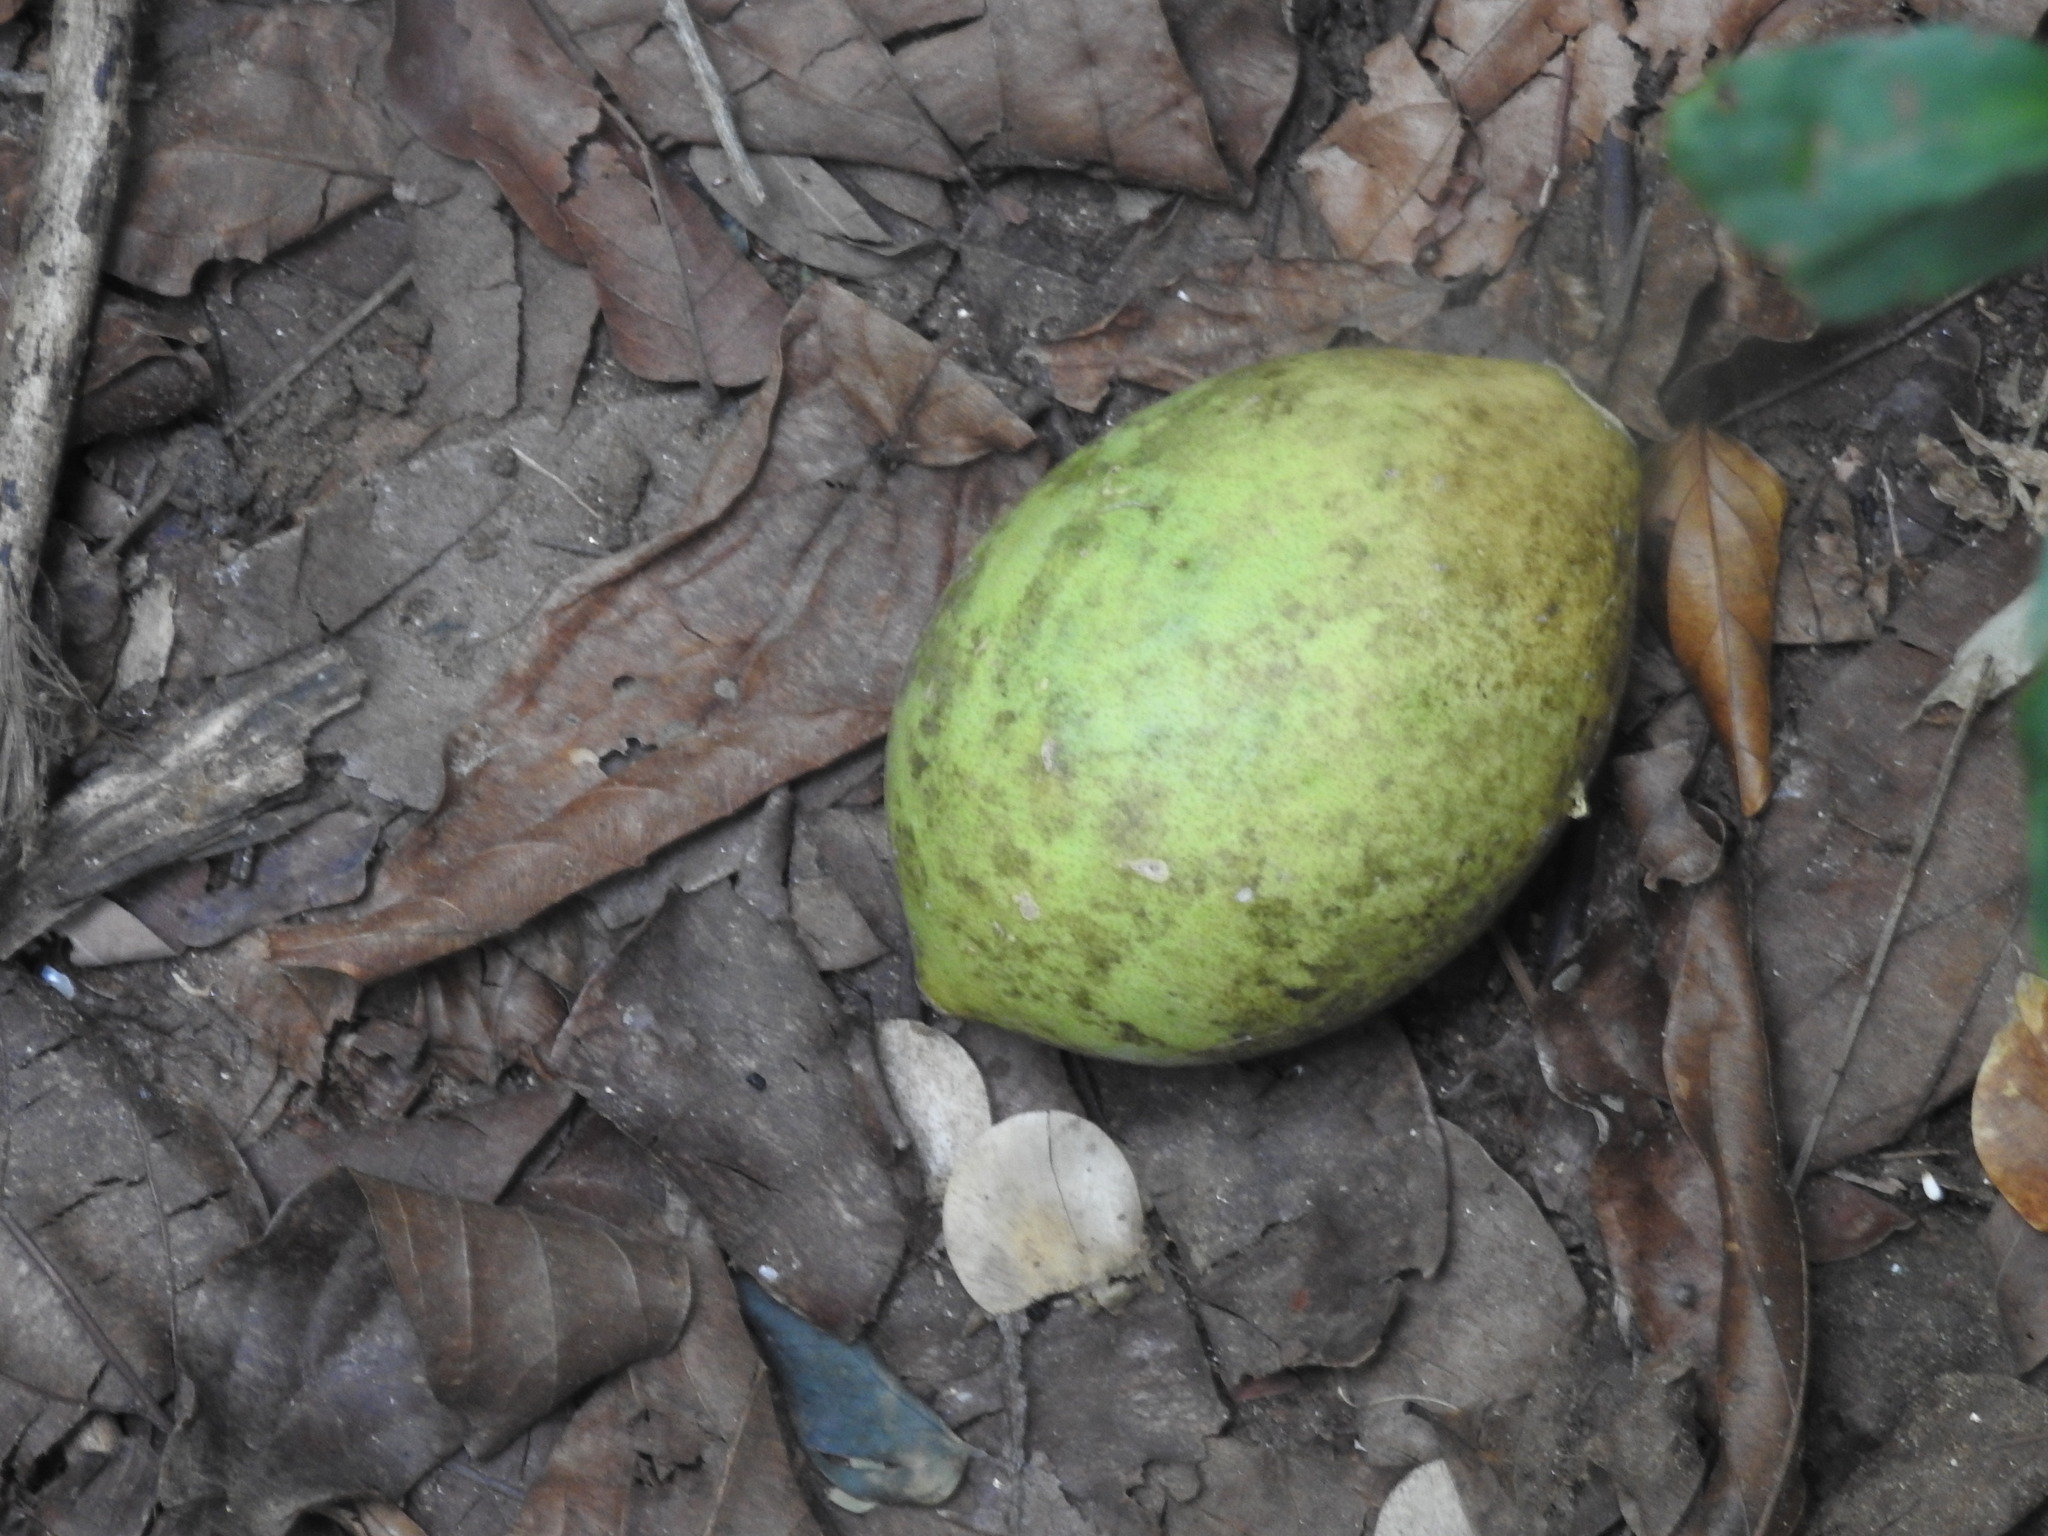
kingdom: Plantae
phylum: Tracheophyta
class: Magnoliopsida
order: Sapindales
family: Rutaceae
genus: Aegle
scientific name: Aegle marmelos
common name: Bael
